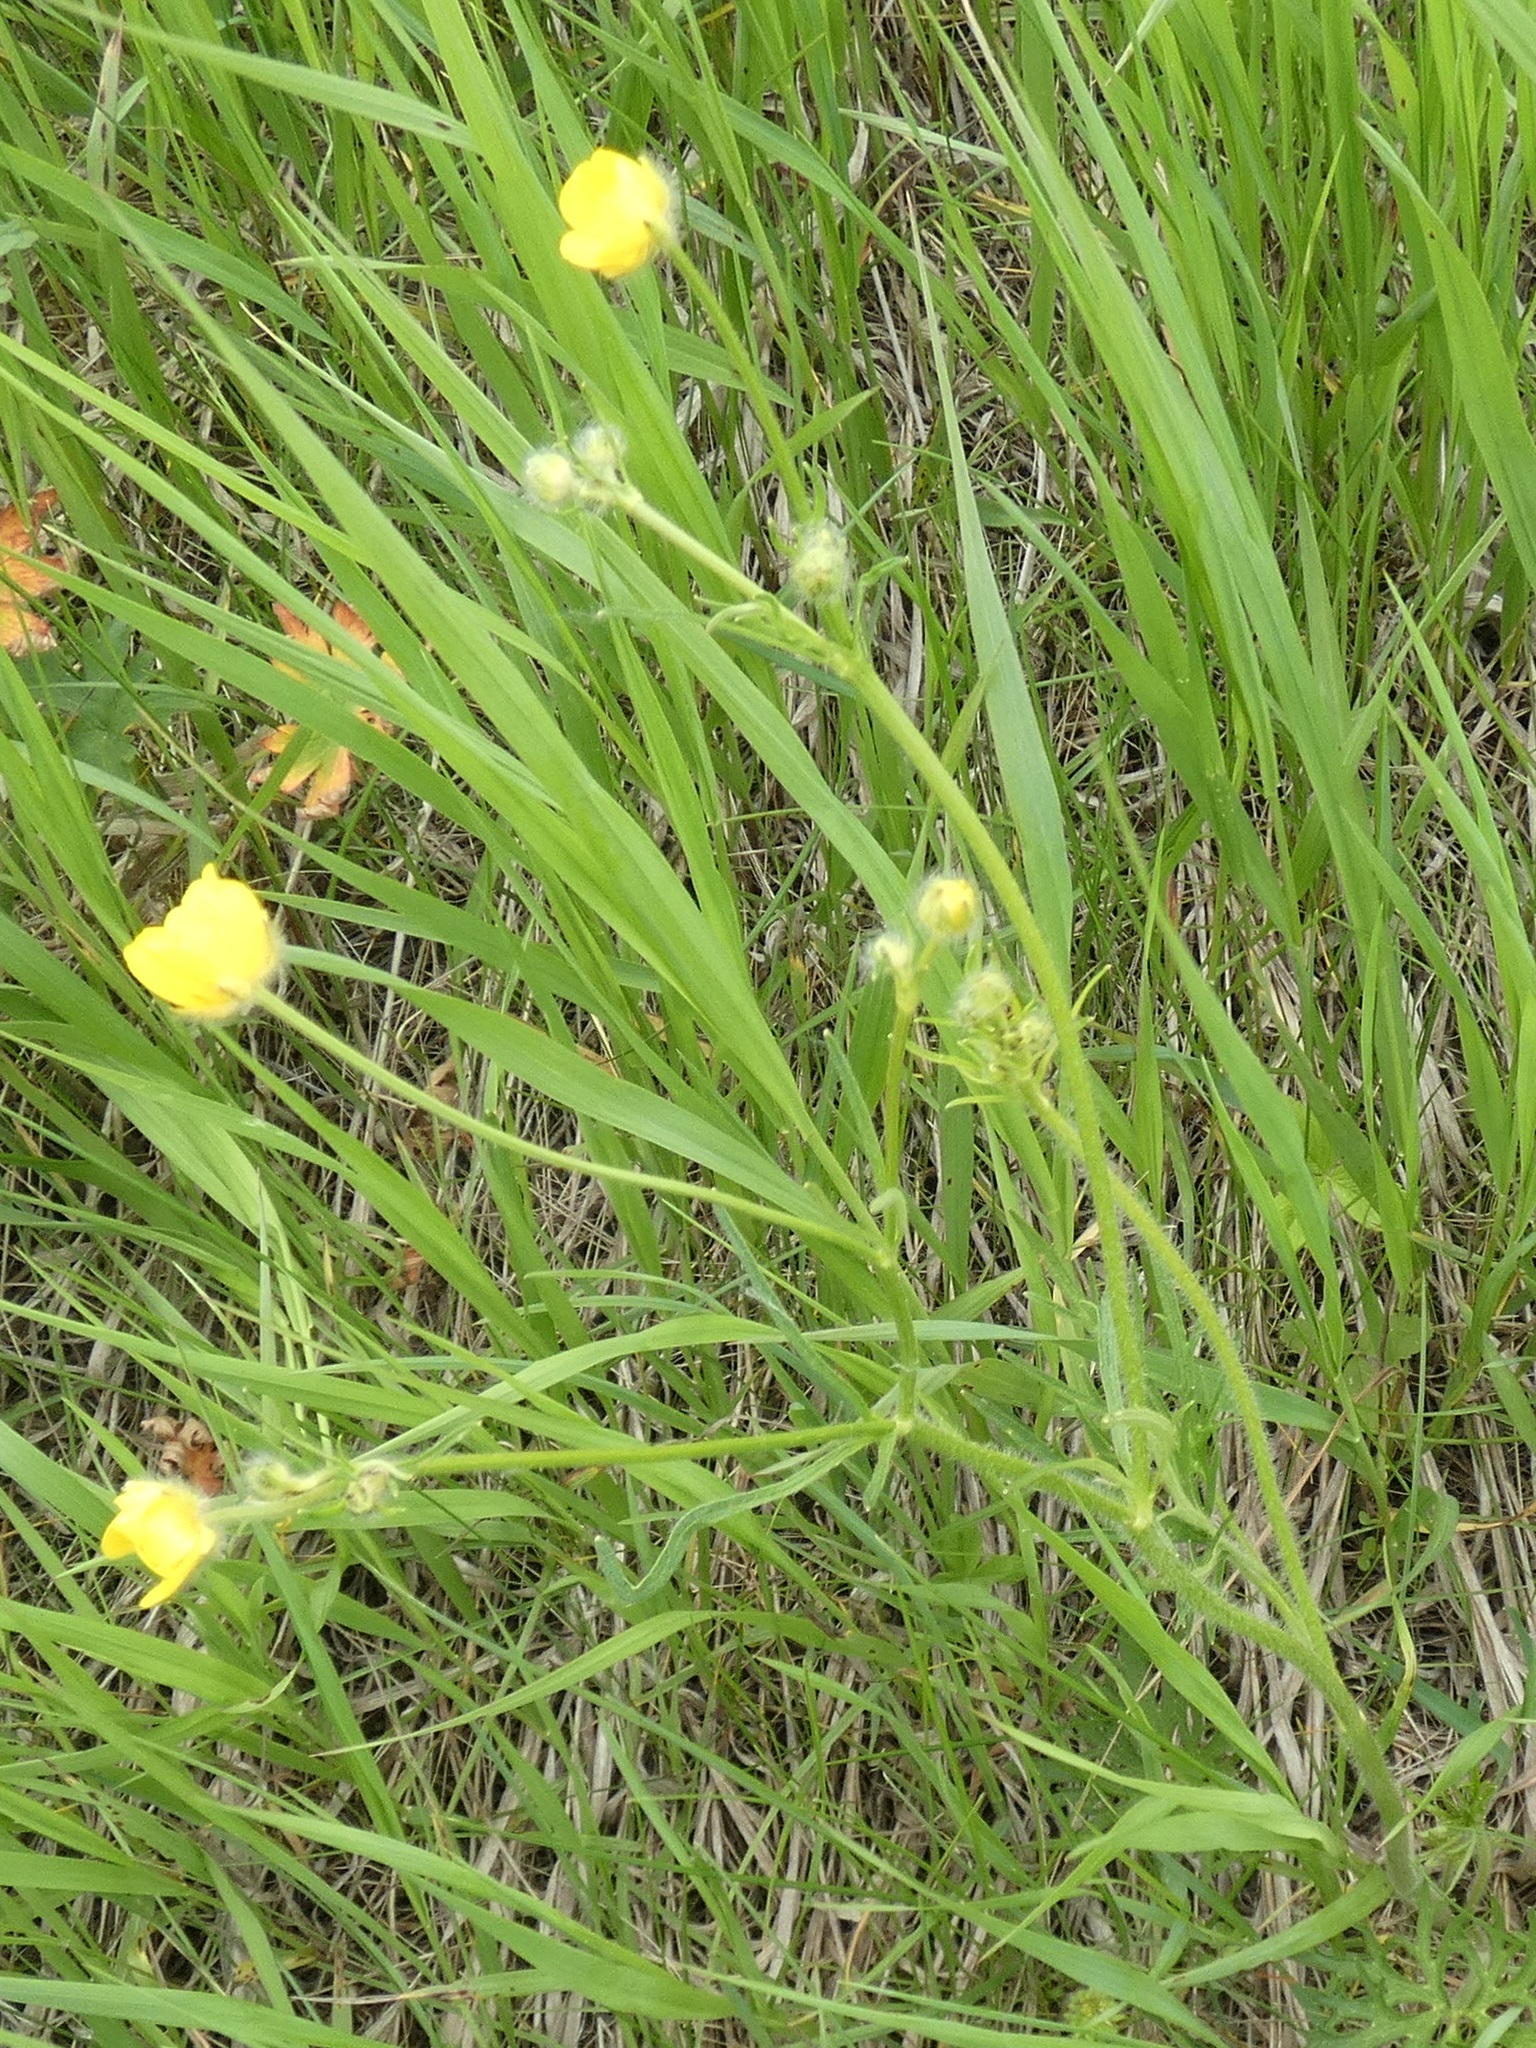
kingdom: Plantae
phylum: Tracheophyta
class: Magnoliopsida
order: Ranunculales
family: Ranunculaceae
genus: Ranunculus
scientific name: Ranunculus polyanthemos
